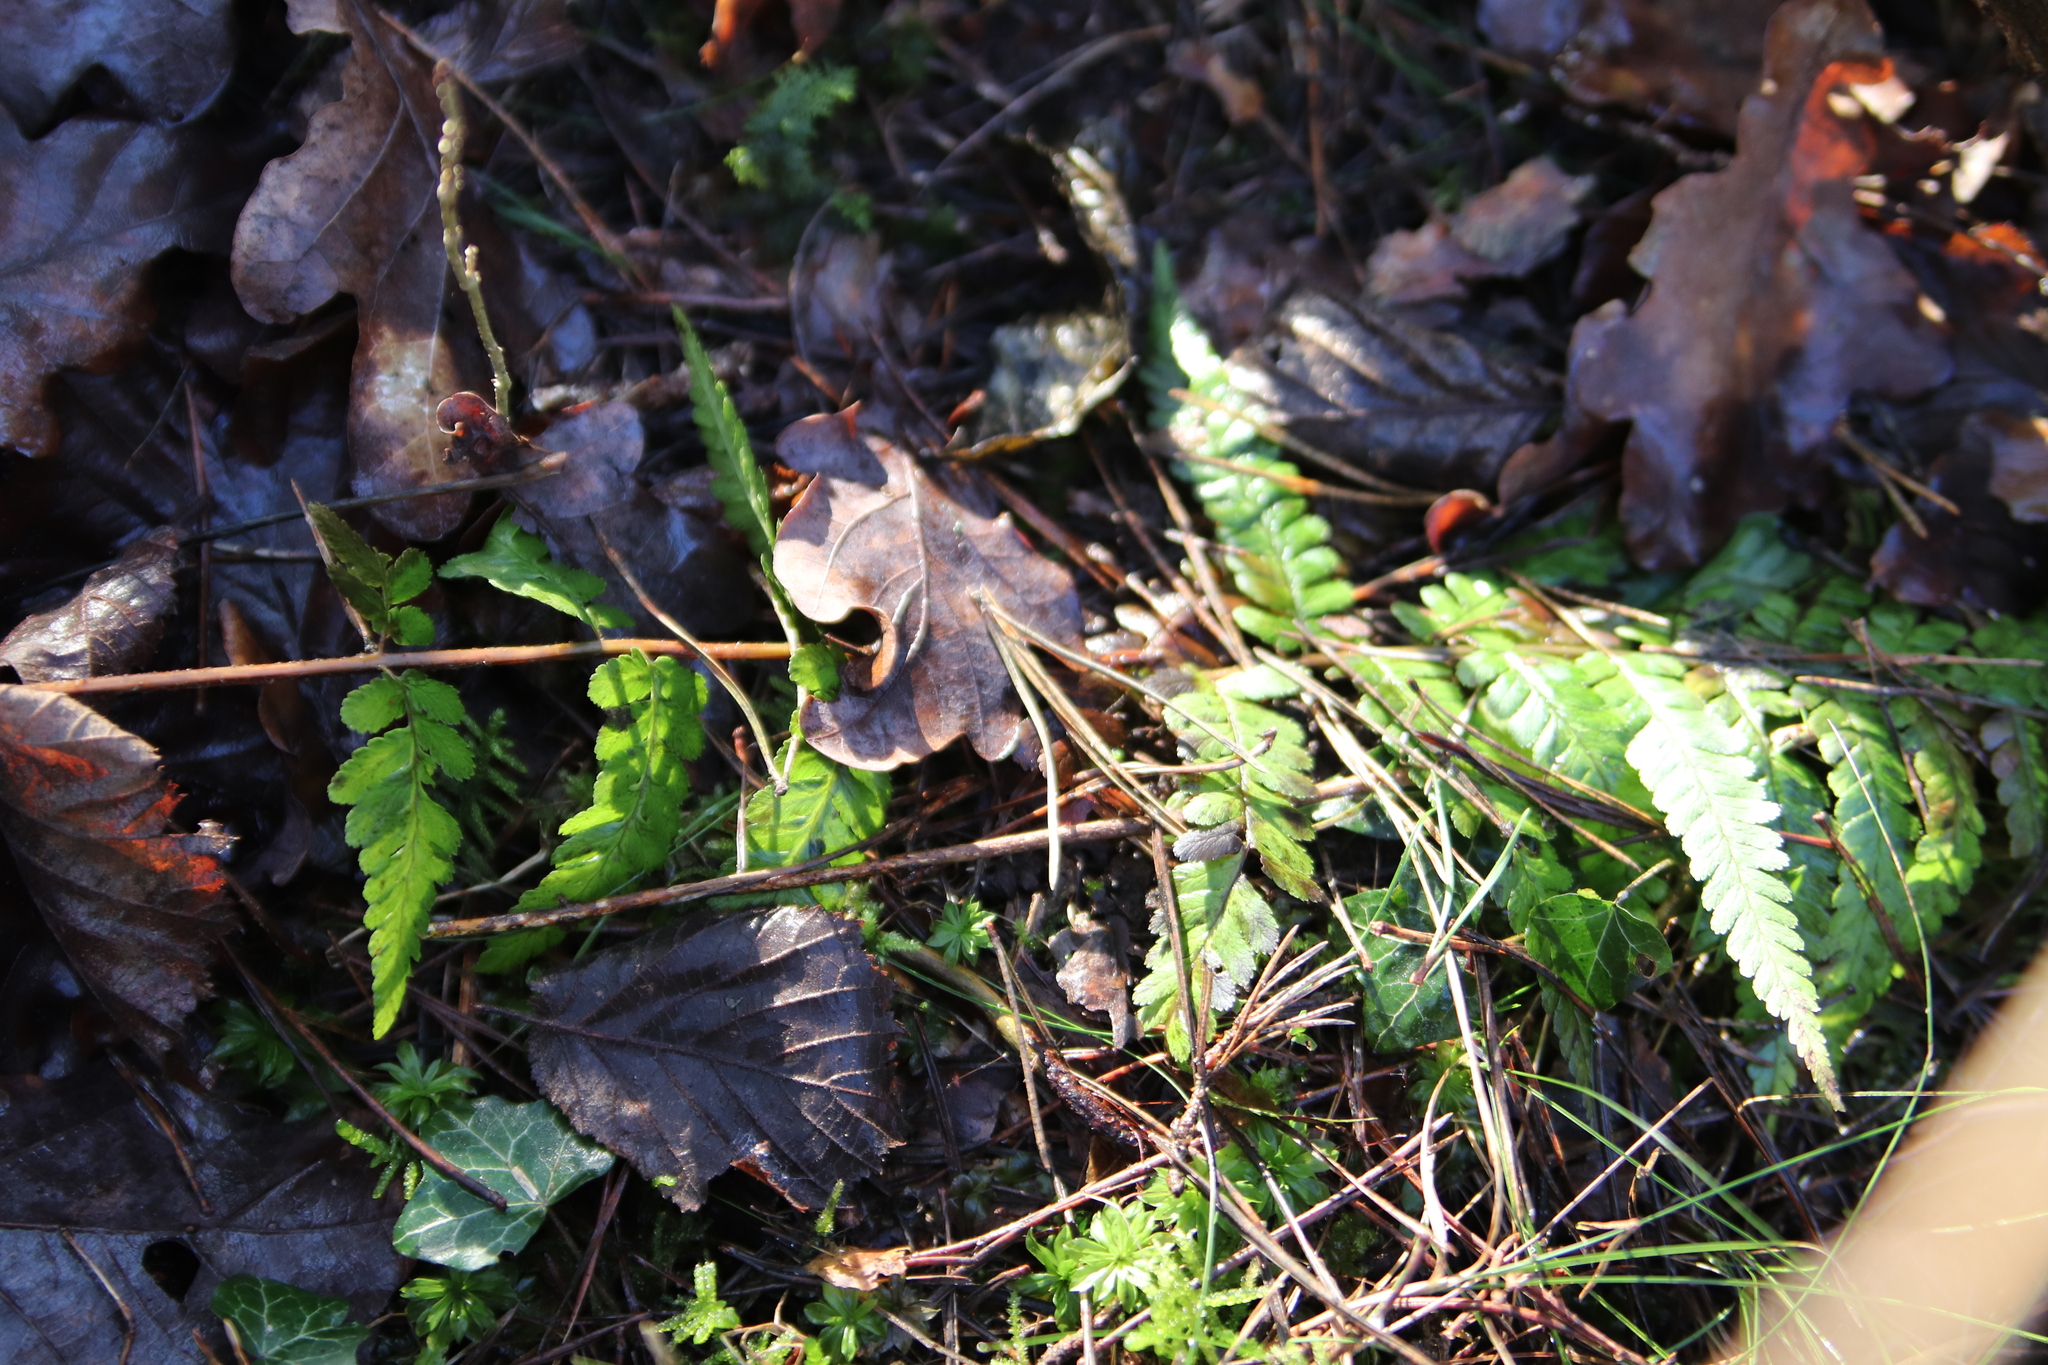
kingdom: Plantae
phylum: Tracheophyta
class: Polypodiopsida
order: Polypodiales
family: Dryopteridaceae
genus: Dryopteris
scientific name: Dryopteris filix-mas
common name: Male fern
